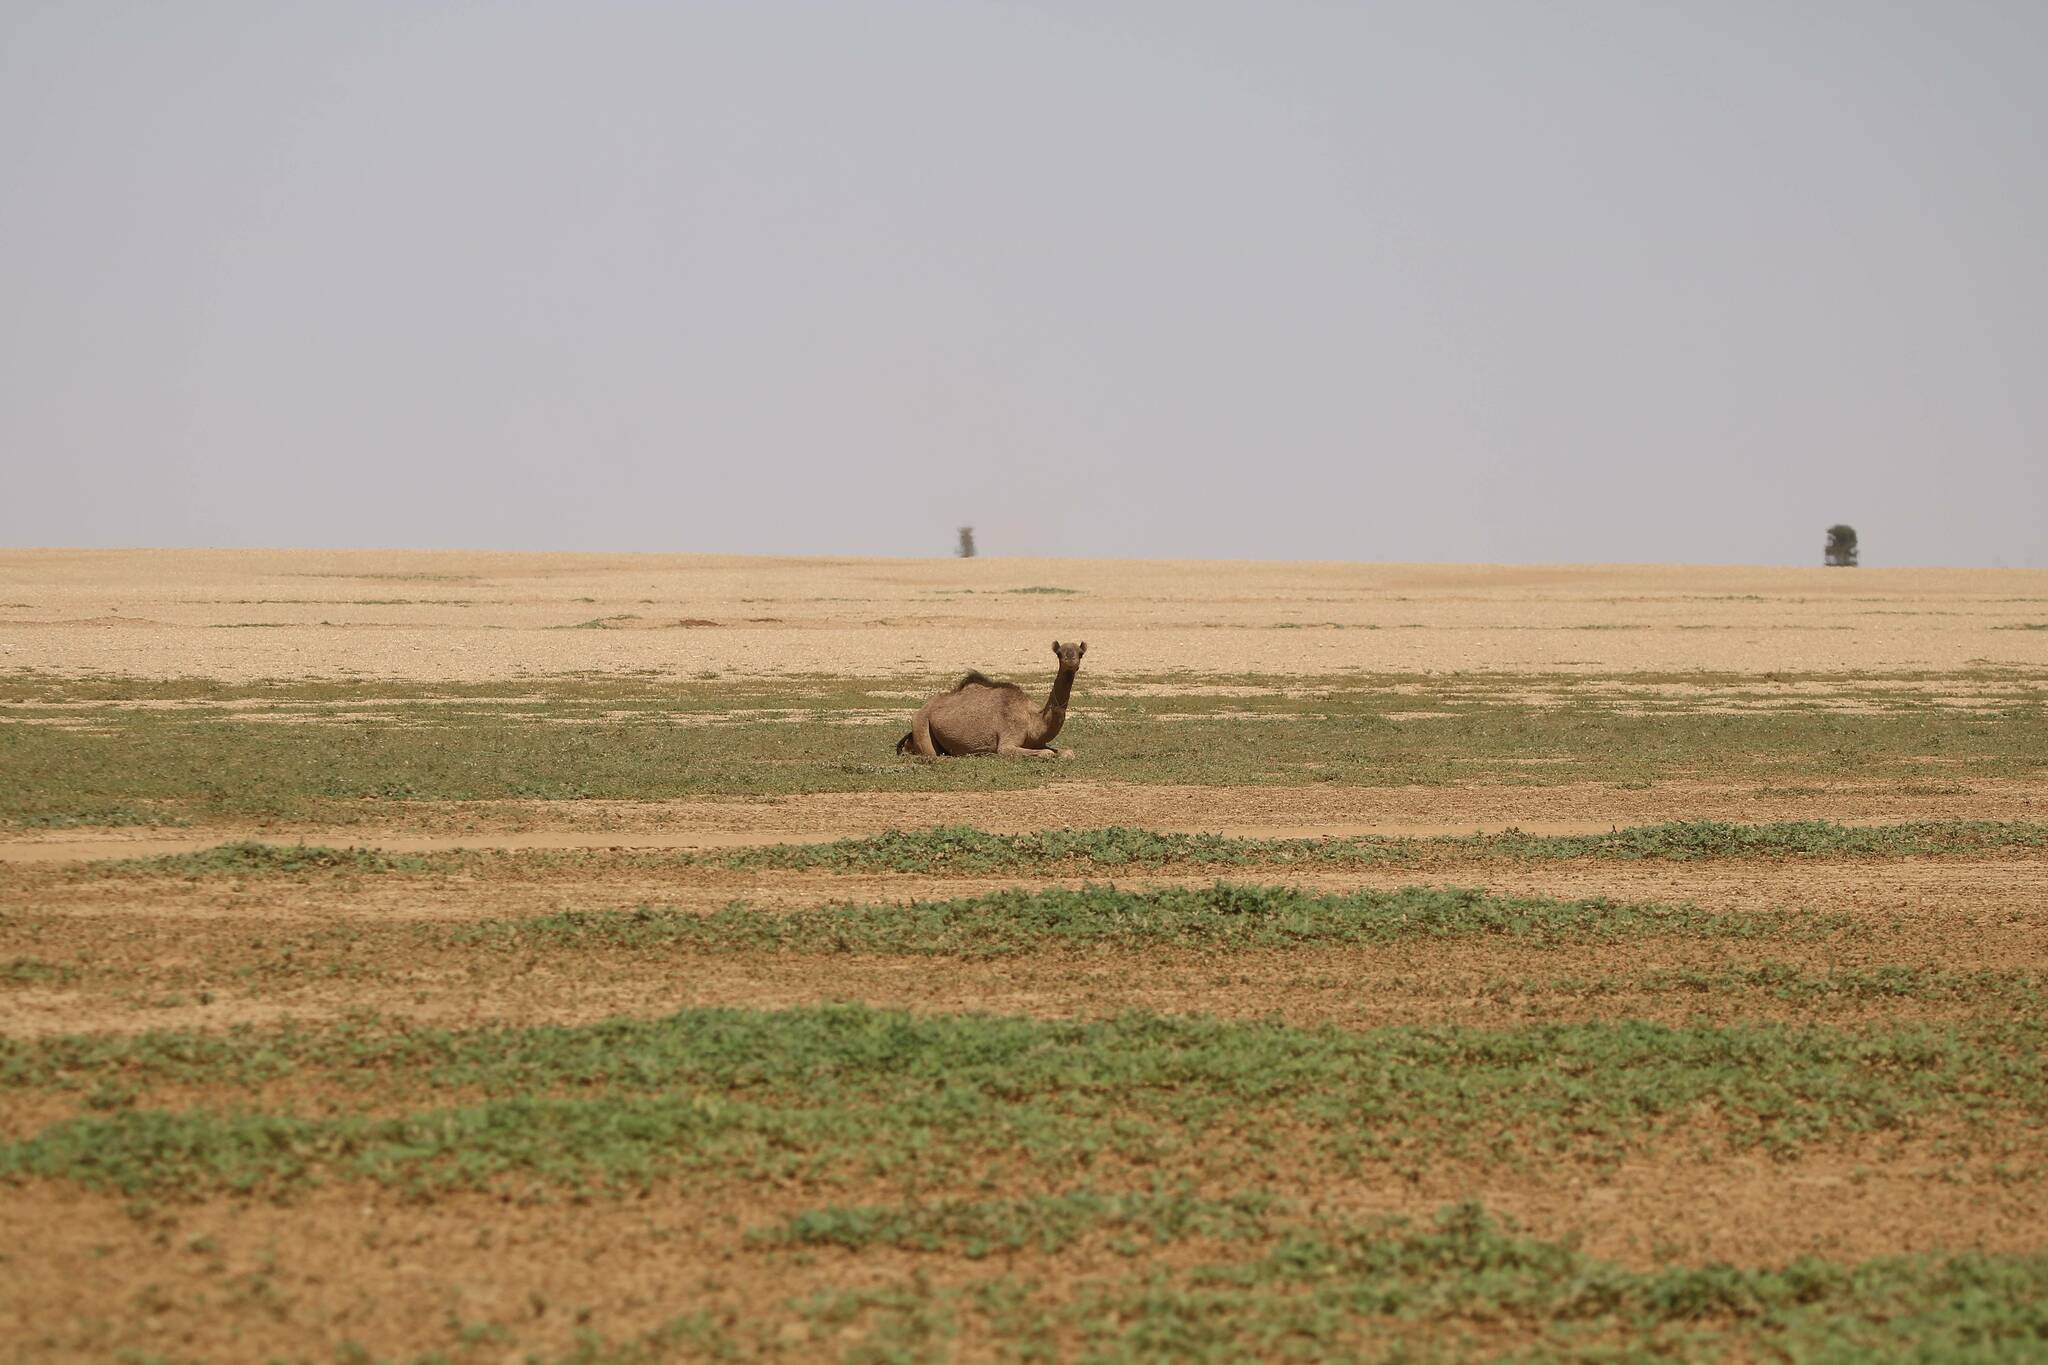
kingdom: Animalia
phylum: Chordata
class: Mammalia
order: Artiodactyla
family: Camelidae
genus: Camelus
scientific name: Camelus dromedarius
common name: One-humped camel
